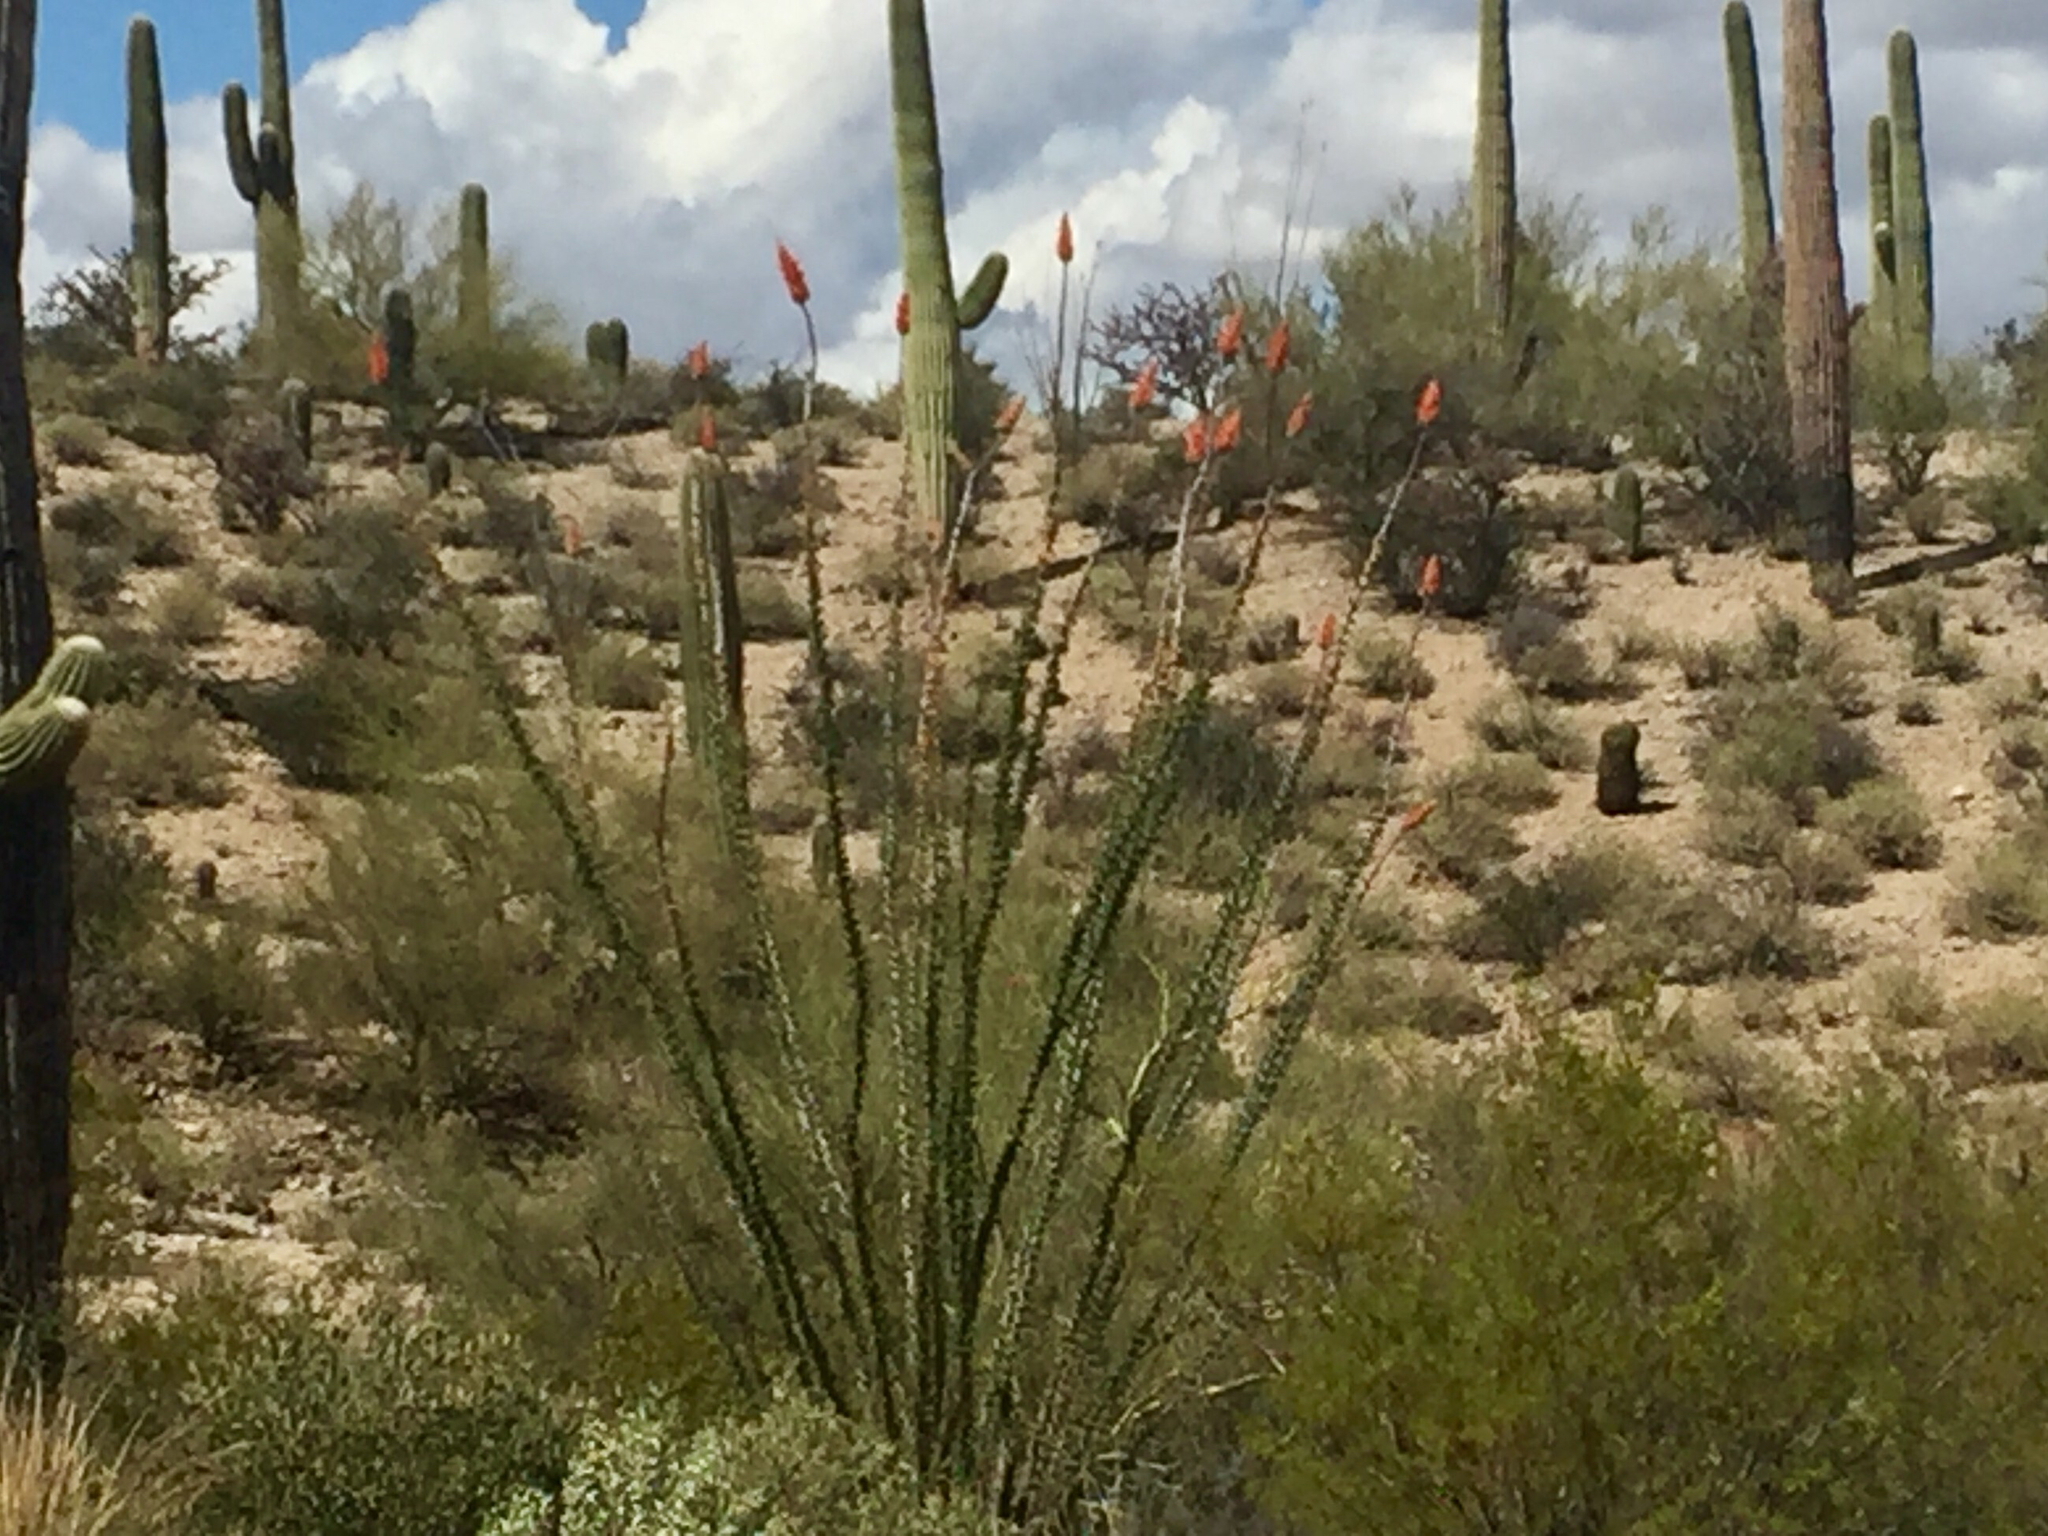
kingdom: Plantae
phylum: Tracheophyta
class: Magnoliopsida
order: Ericales
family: Fouquieriaceae
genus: Fouquieria
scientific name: Fouquieria splendens
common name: Vine-cactus
